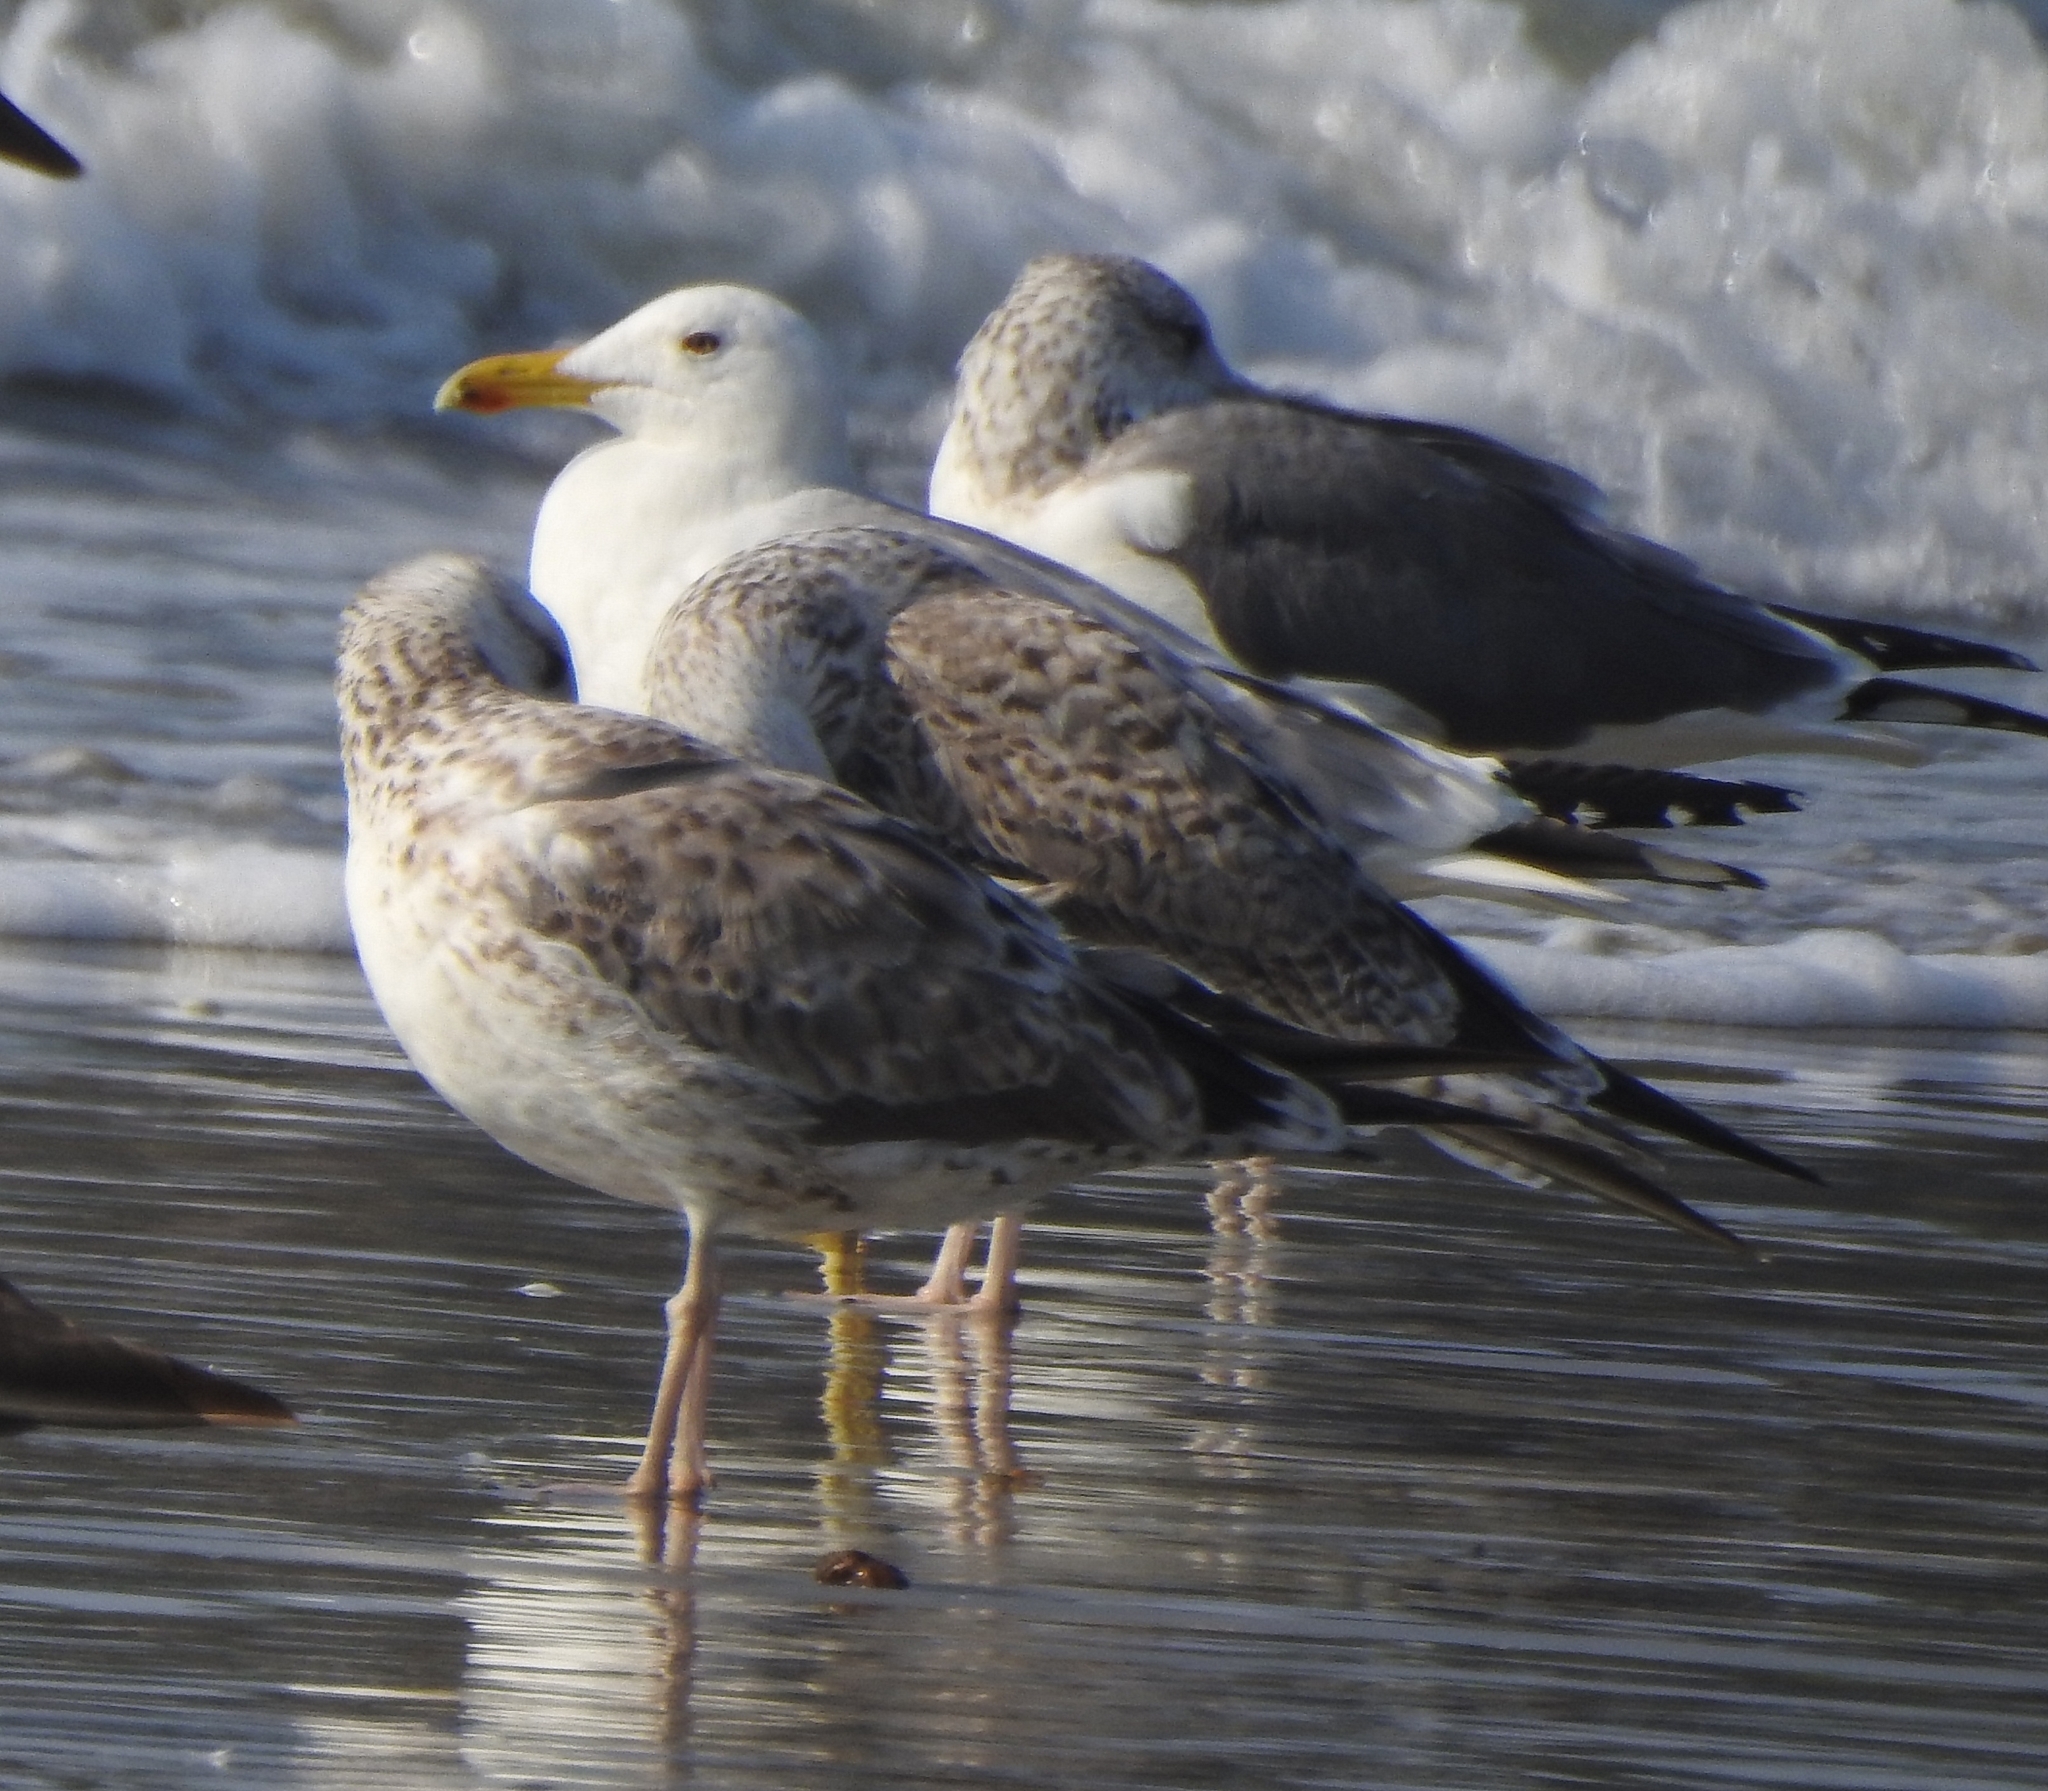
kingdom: Animalia
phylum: Chordata
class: Aves
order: Charadriiformes
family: Laridae
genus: Larus
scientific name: Larus fuscus
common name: Lesser black-backed gull
